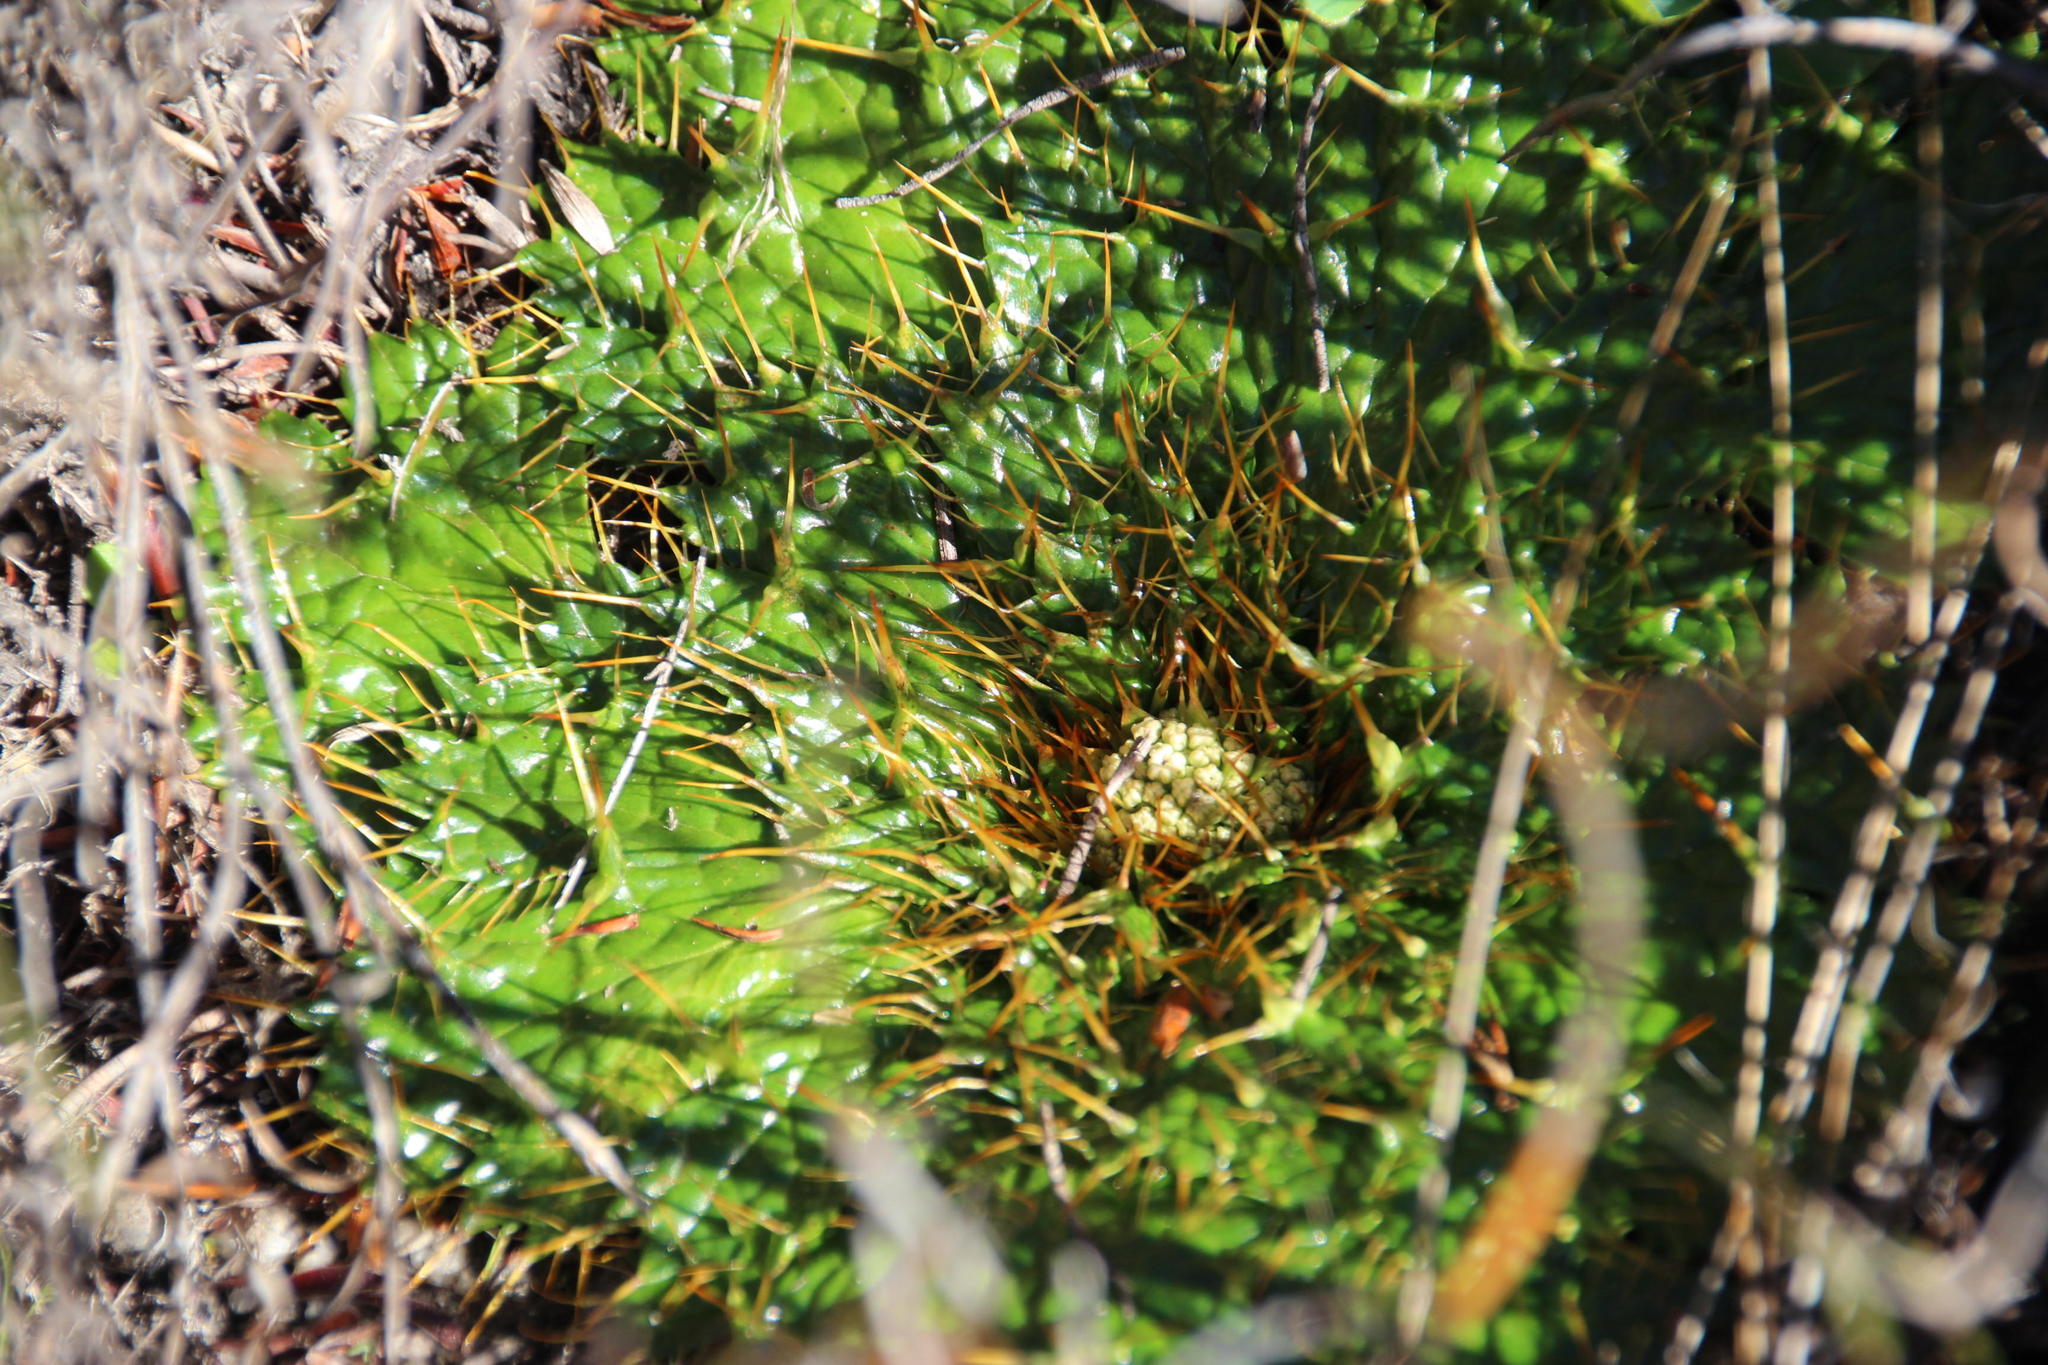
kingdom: Plantae
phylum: Tracheophyta
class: Magnoliopsida
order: Apiales
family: Apiaceae
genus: Arctopus
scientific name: Arctopus echinatus
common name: Platdoring
